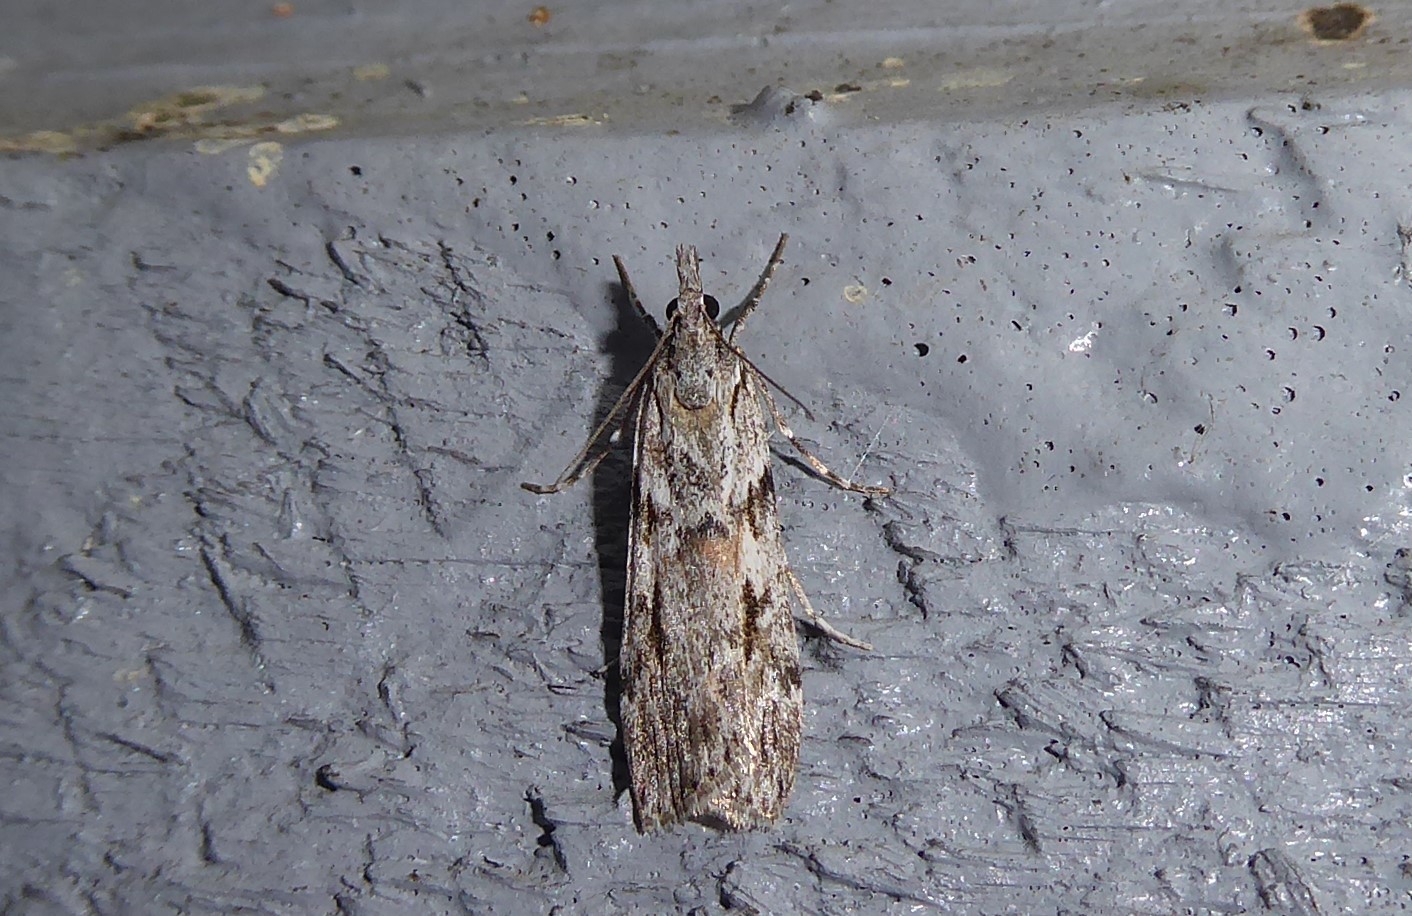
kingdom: Animalia
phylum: Arthropoda
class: Insecta
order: Lepidoptera
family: Crambidae
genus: Scoparia
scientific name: Scoparia halopis
